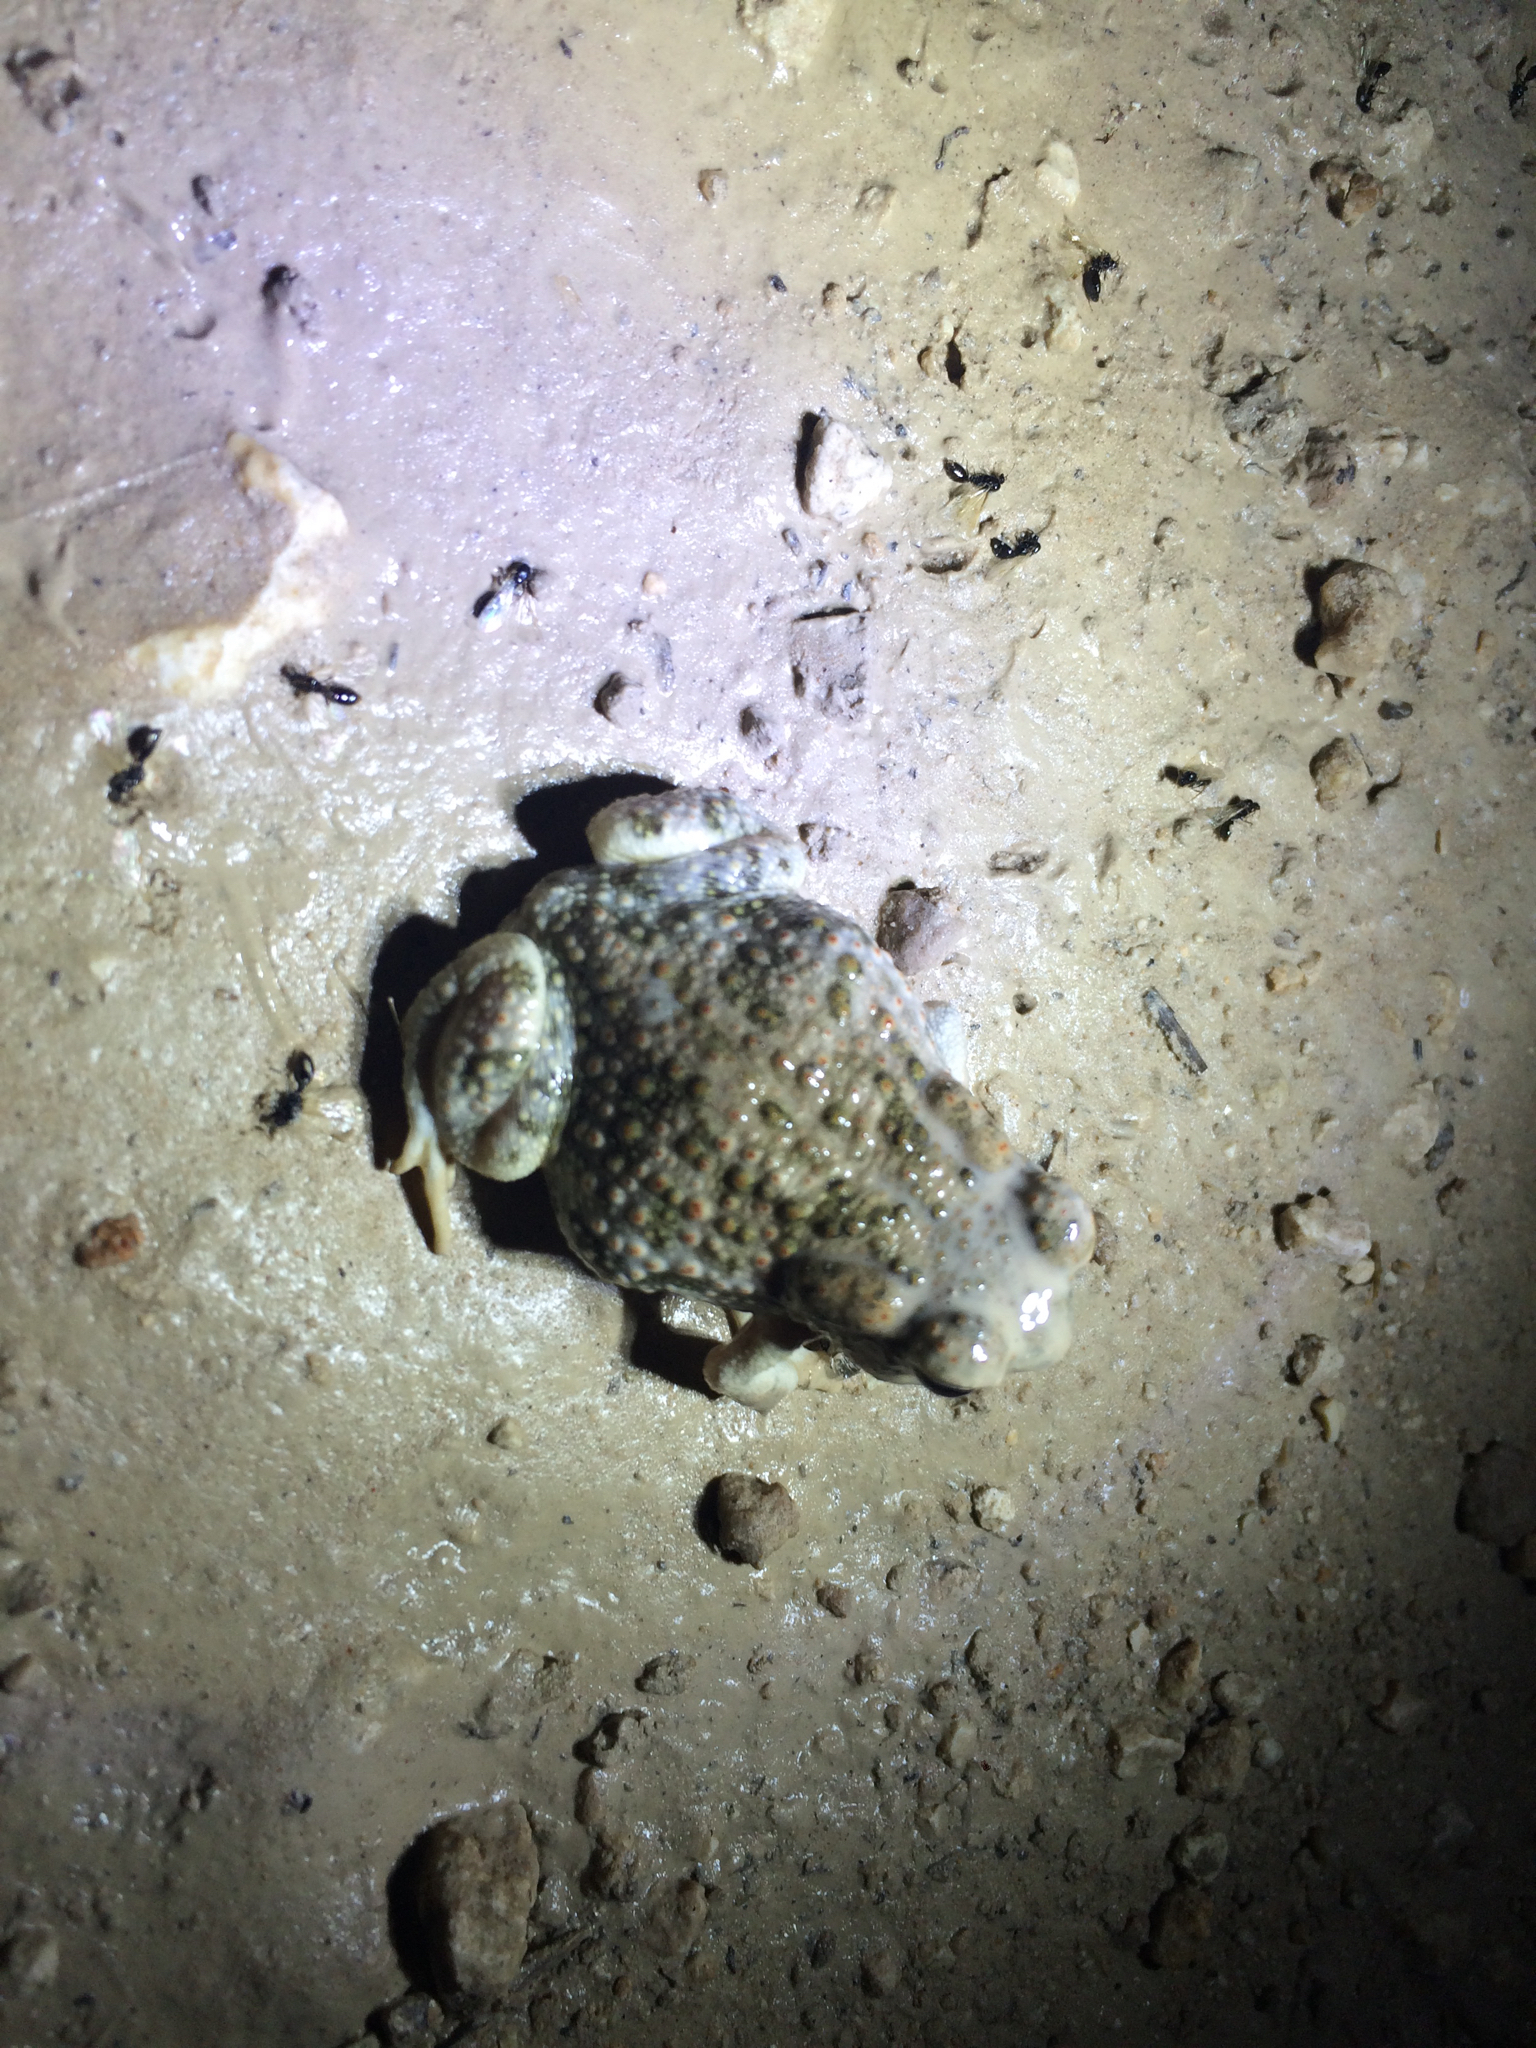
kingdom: Animalia
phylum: Chordata
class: Amphibia
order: Anura
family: Bufonidae
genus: Anaxyrus
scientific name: Anaxyrus speciosus
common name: Texas toad
